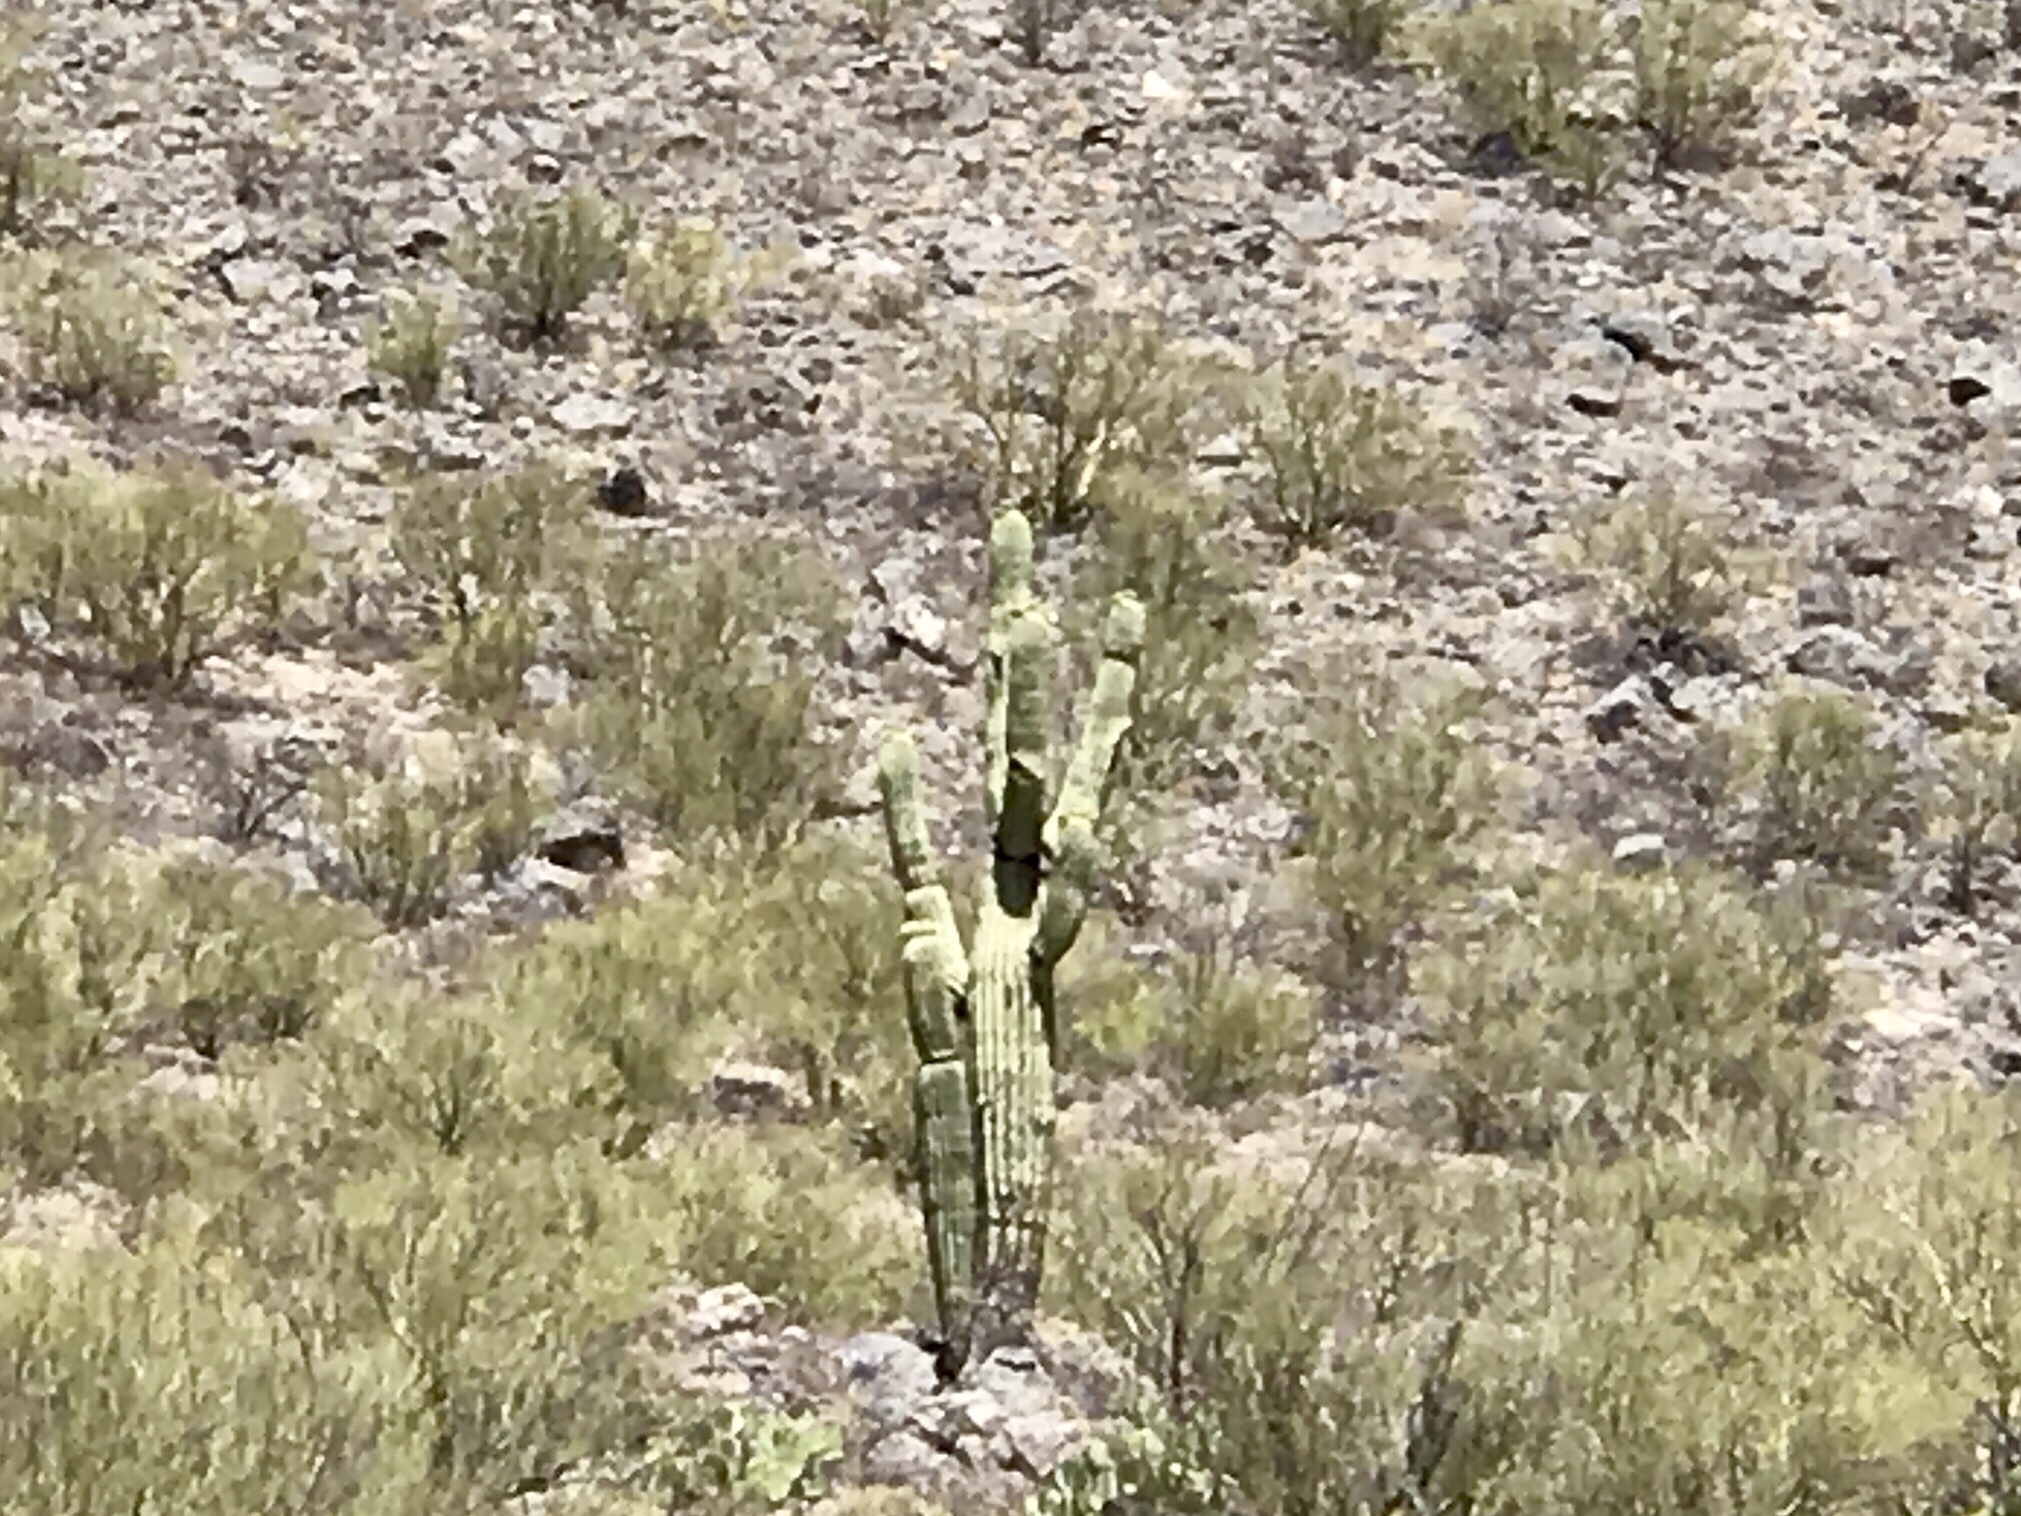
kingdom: Plantae
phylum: Tracheophyta
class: Magnoliopsida
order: Caryophyllales
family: Cactaceae
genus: Carnegiea
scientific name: Carnegiea gigantea
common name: Saguaro
